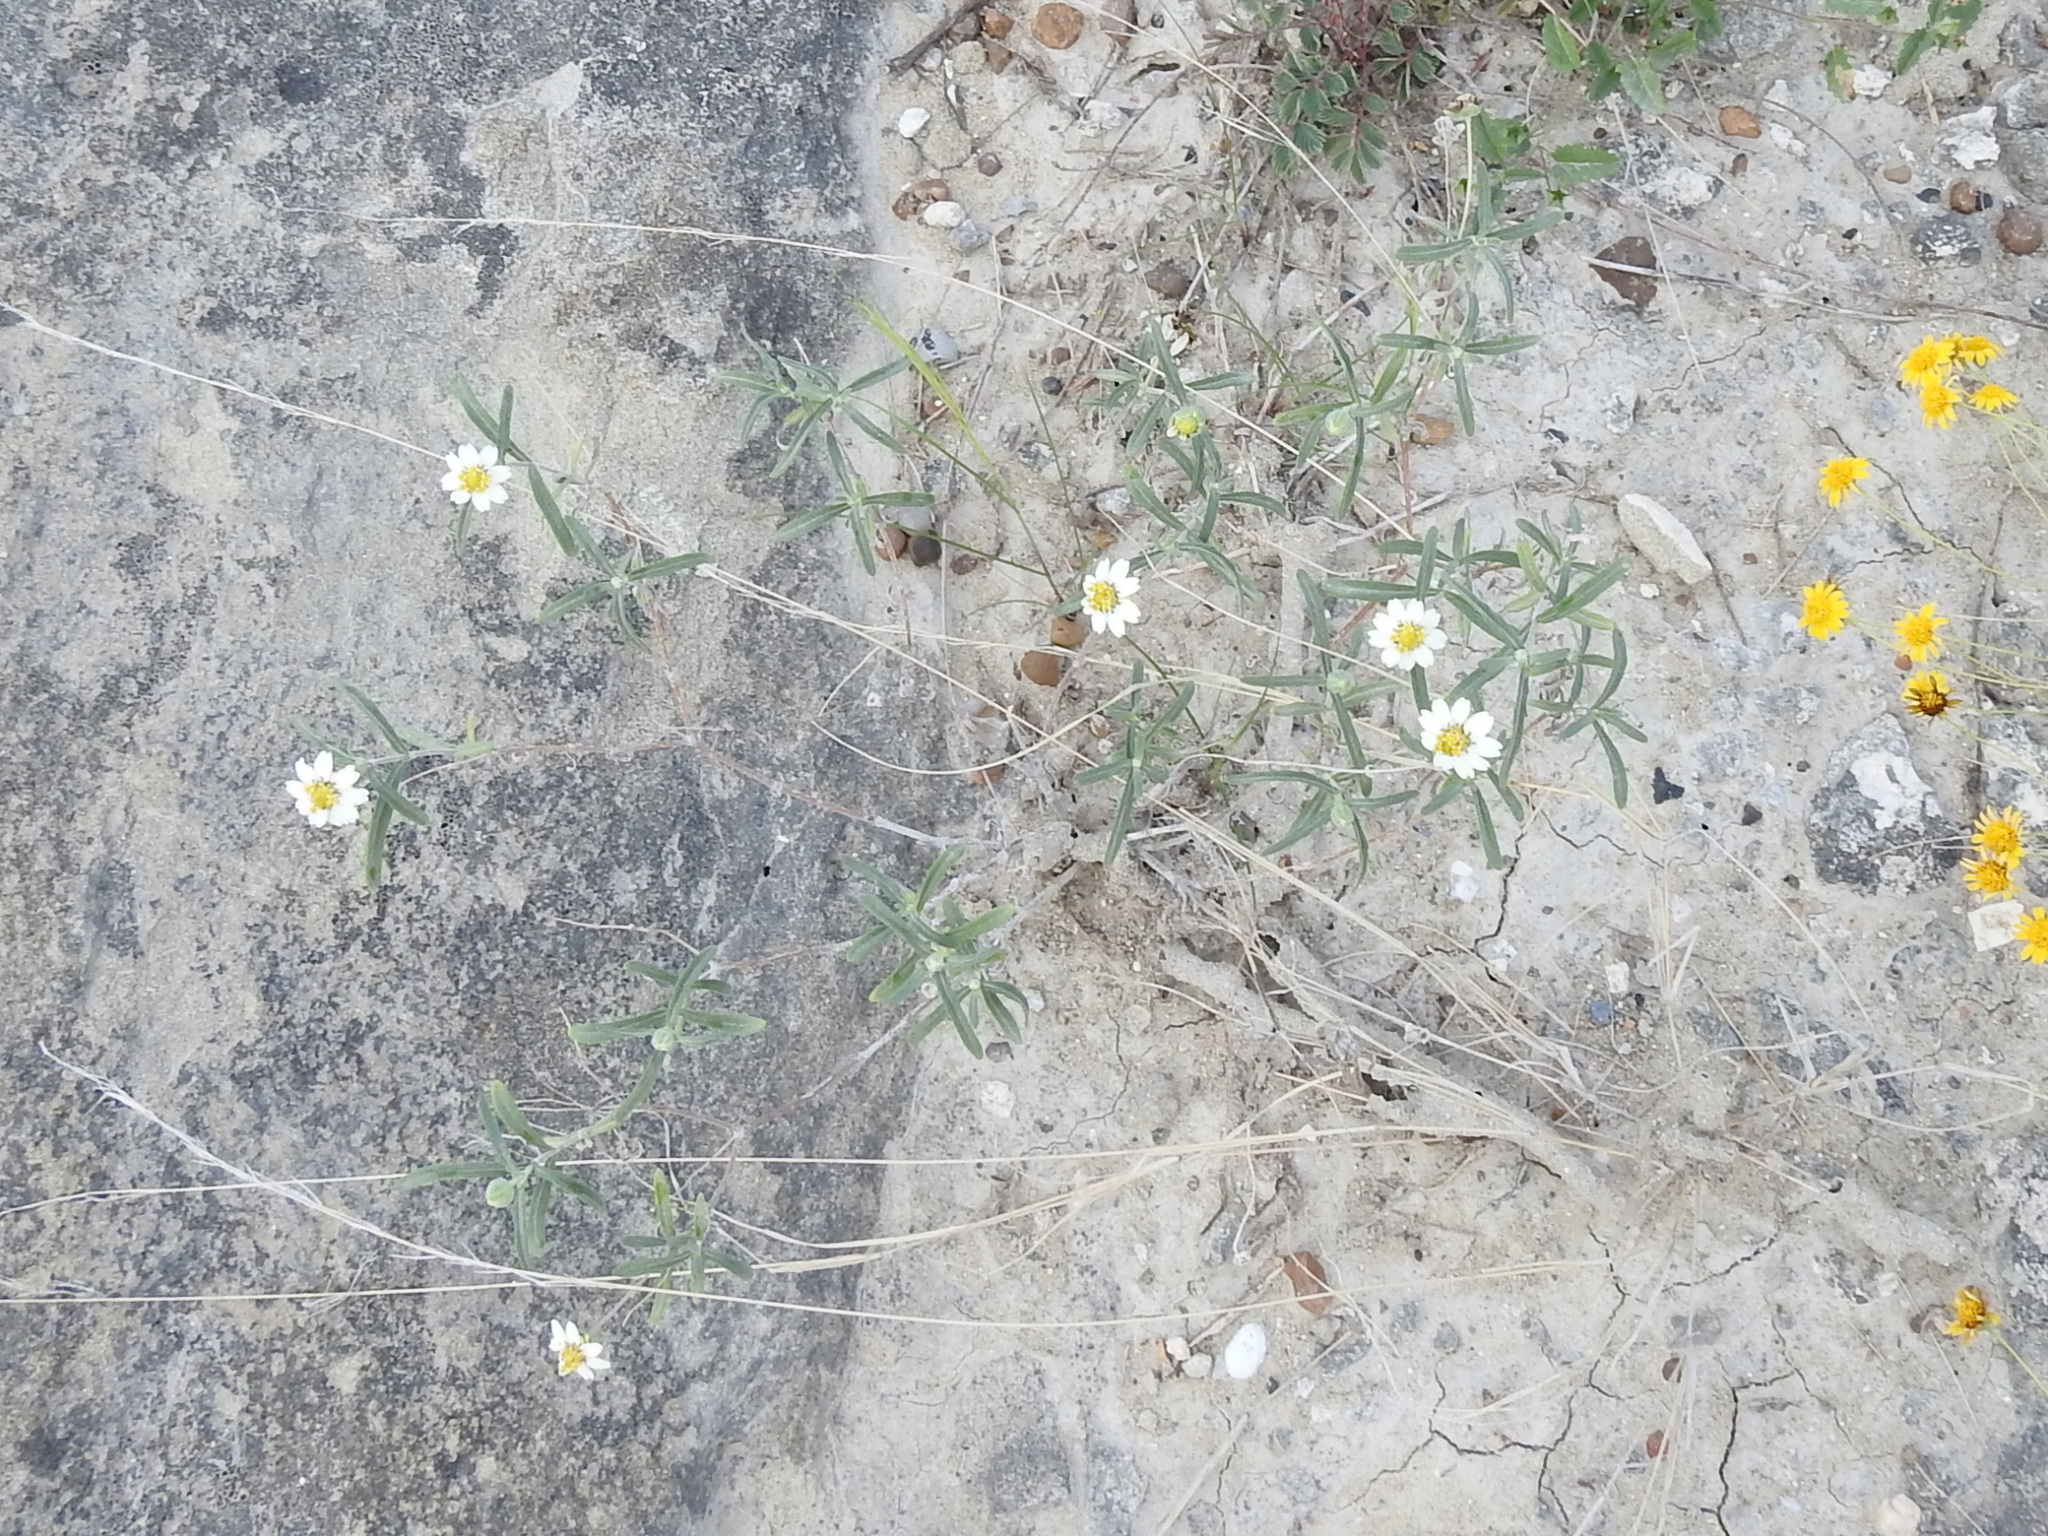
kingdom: Plantae
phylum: Tracheophyta
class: Magnoliopsida
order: Asterales
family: Asteraceae
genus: Melampodium
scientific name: Melampodium cinereum
